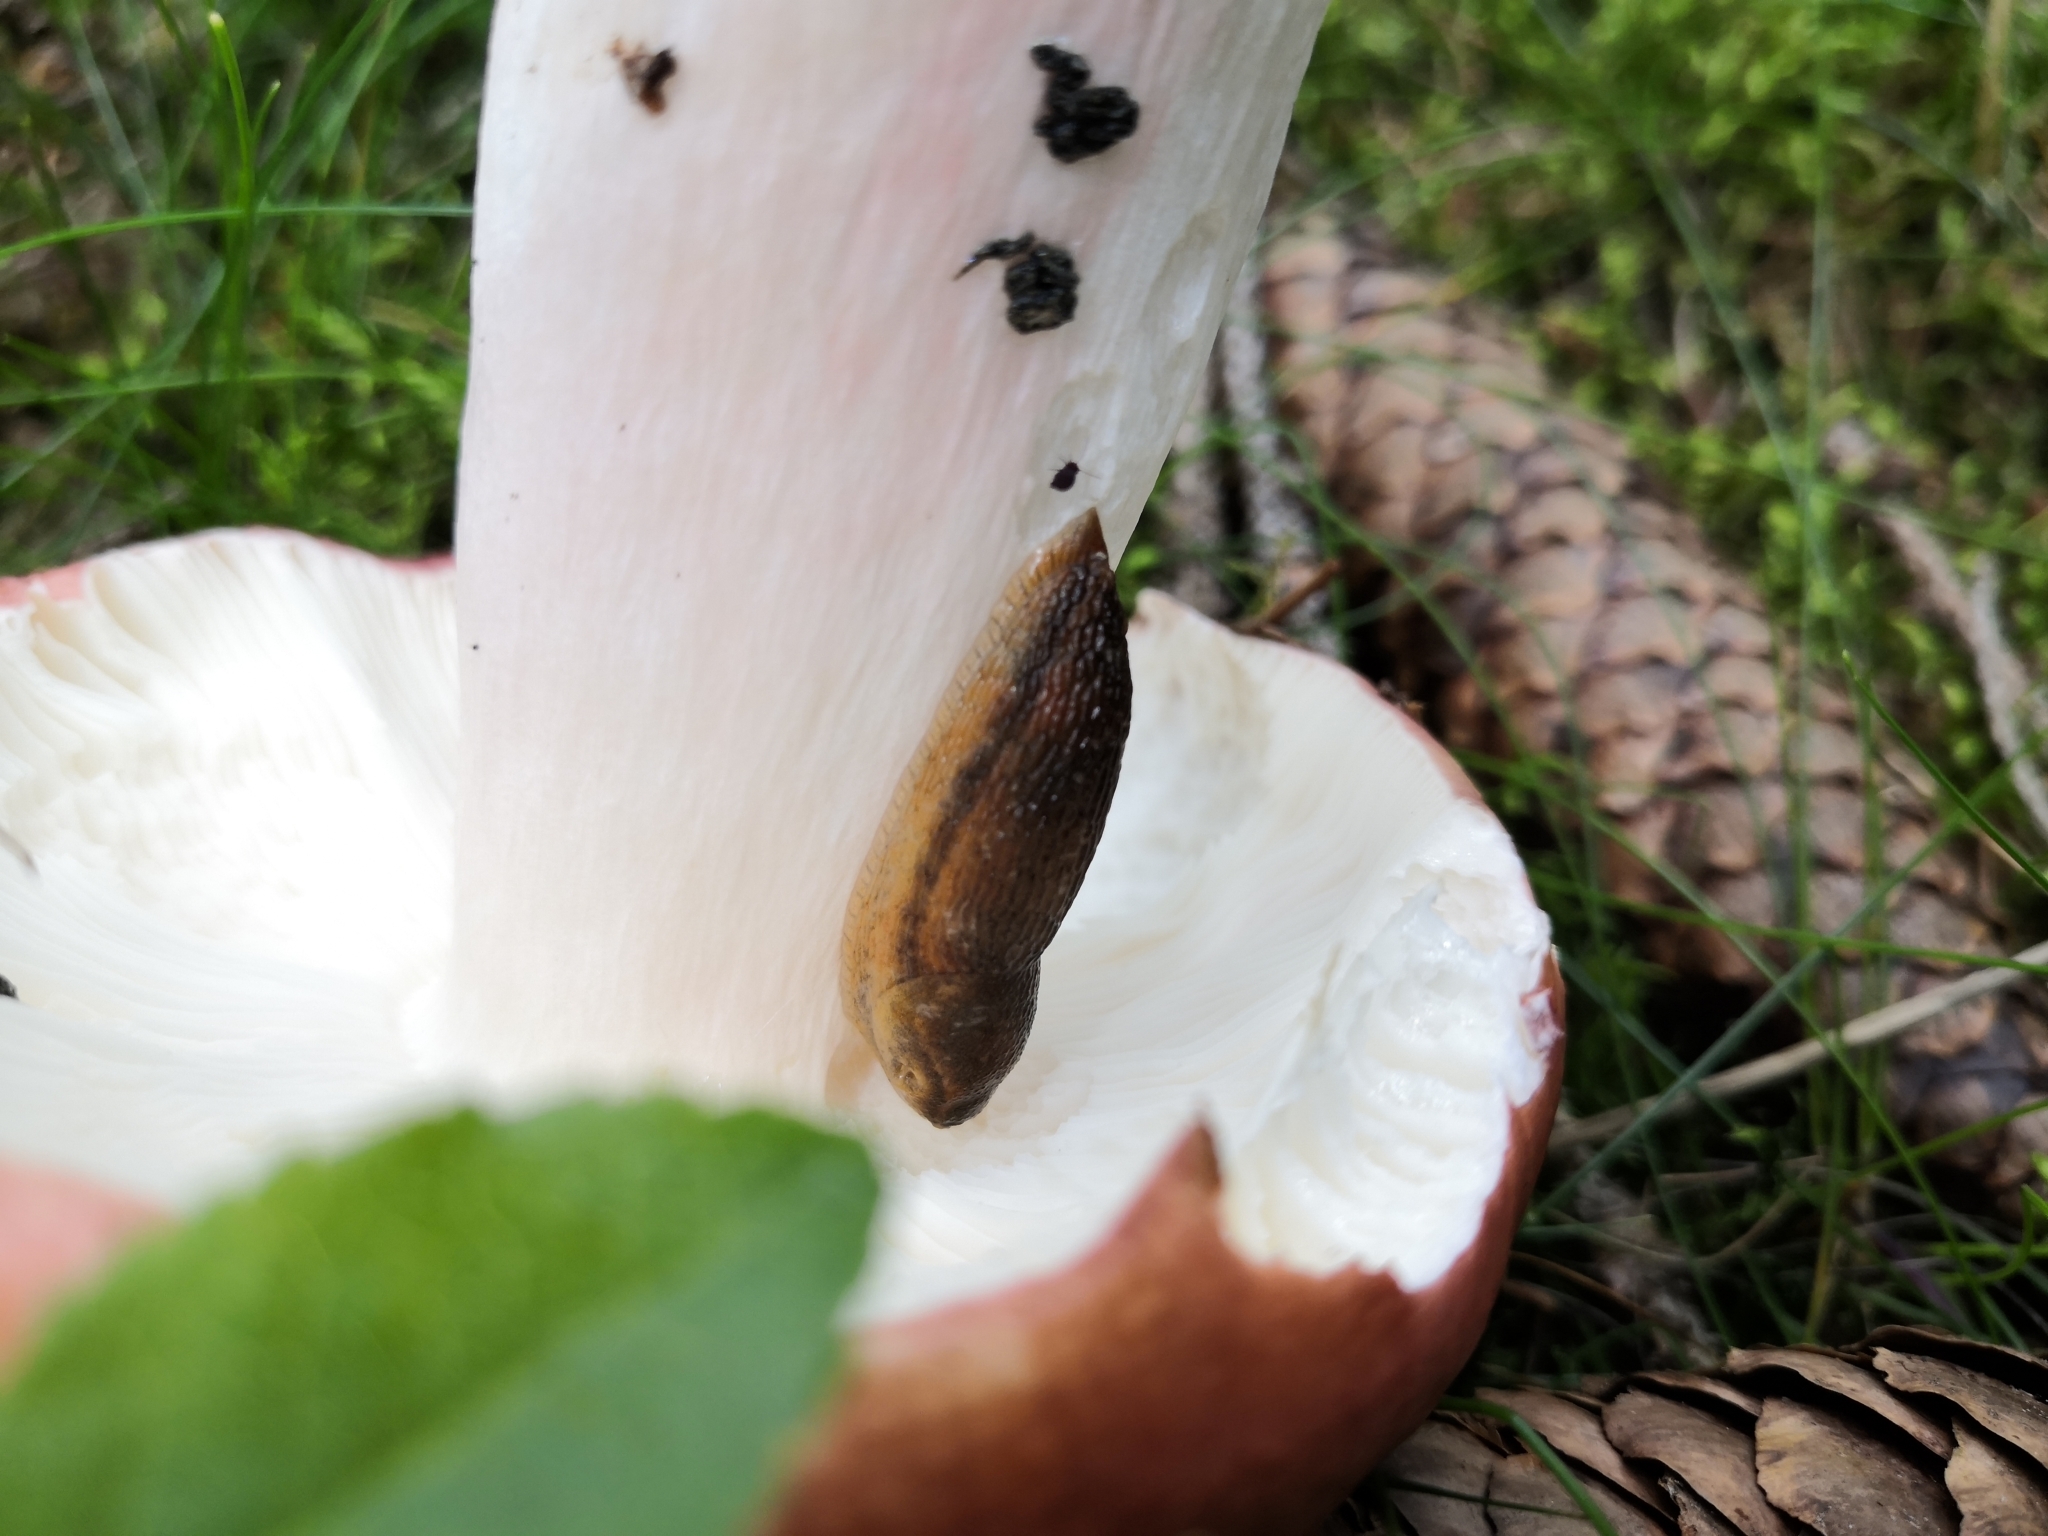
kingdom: Fungi
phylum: Basidiomycota
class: Agaricomycetes
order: Russulales
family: Russulaceae
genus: Russula
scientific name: Russula paludosa
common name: Hintapink
